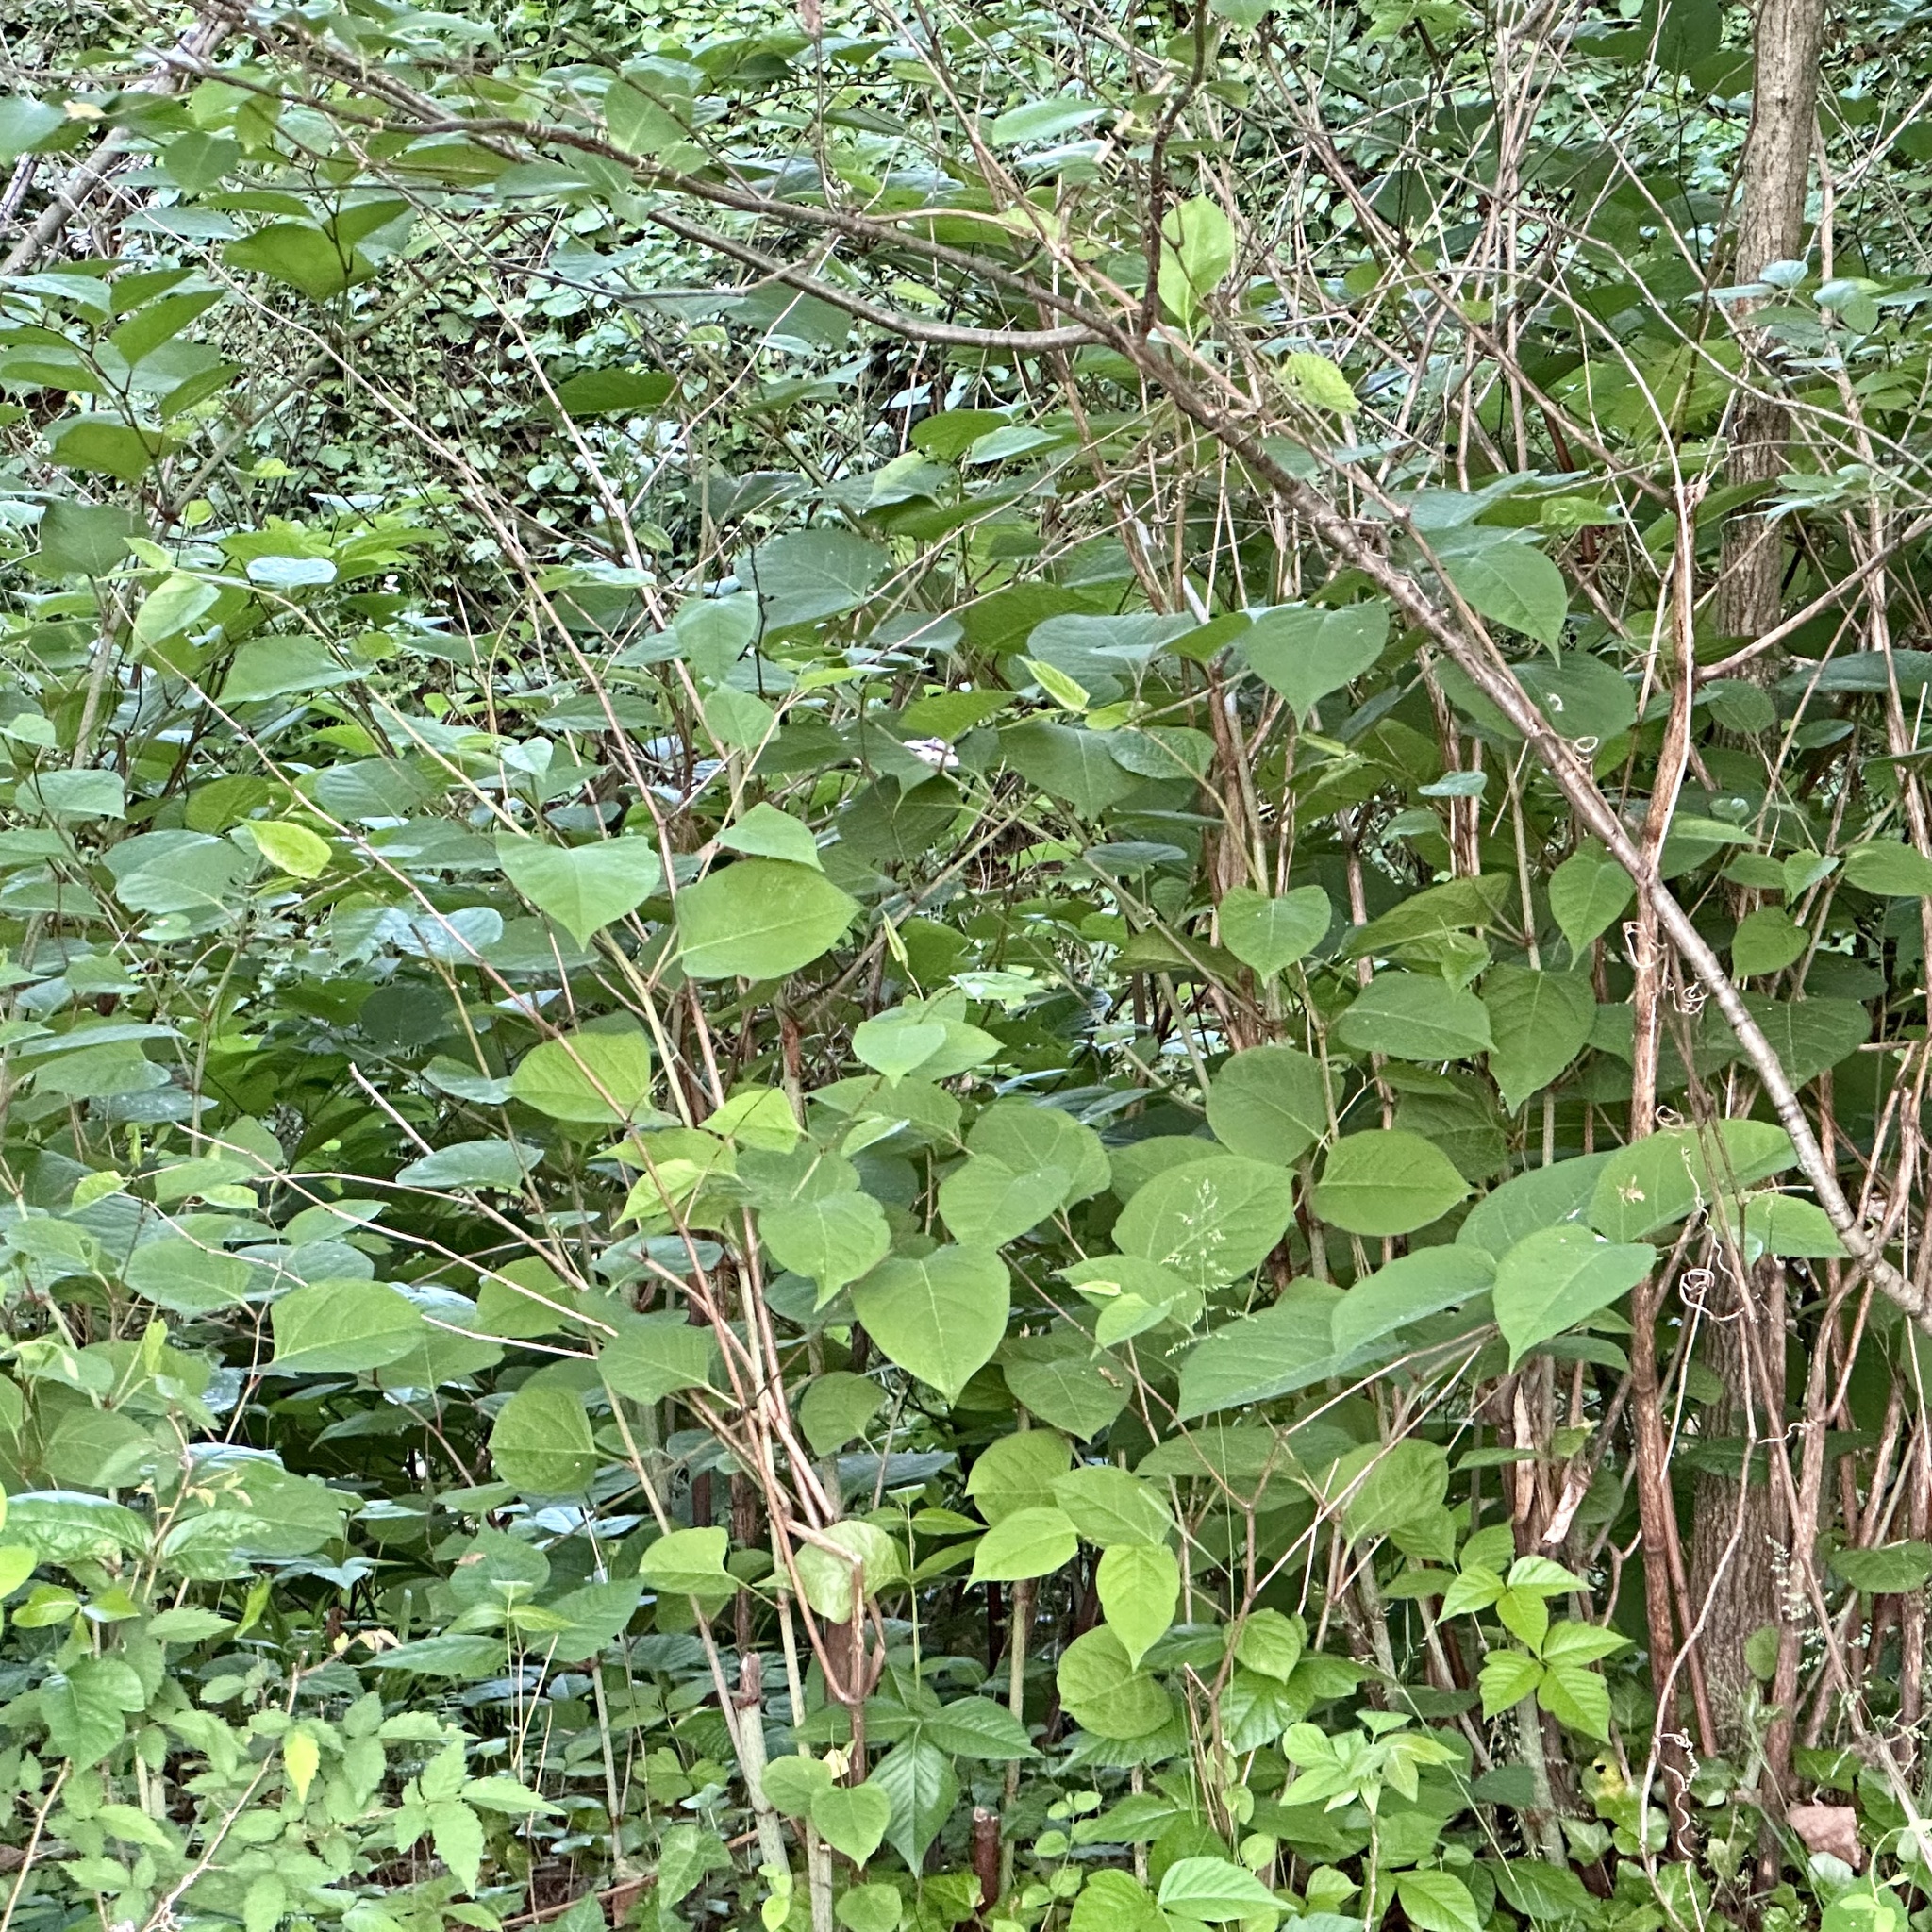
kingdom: Plantae
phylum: Tracheophyta
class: Magnoliopsida
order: Caryophyllales
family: Polygonaceae
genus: Reynoutria
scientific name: Reynoutria japonica
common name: Japanese knotweed
